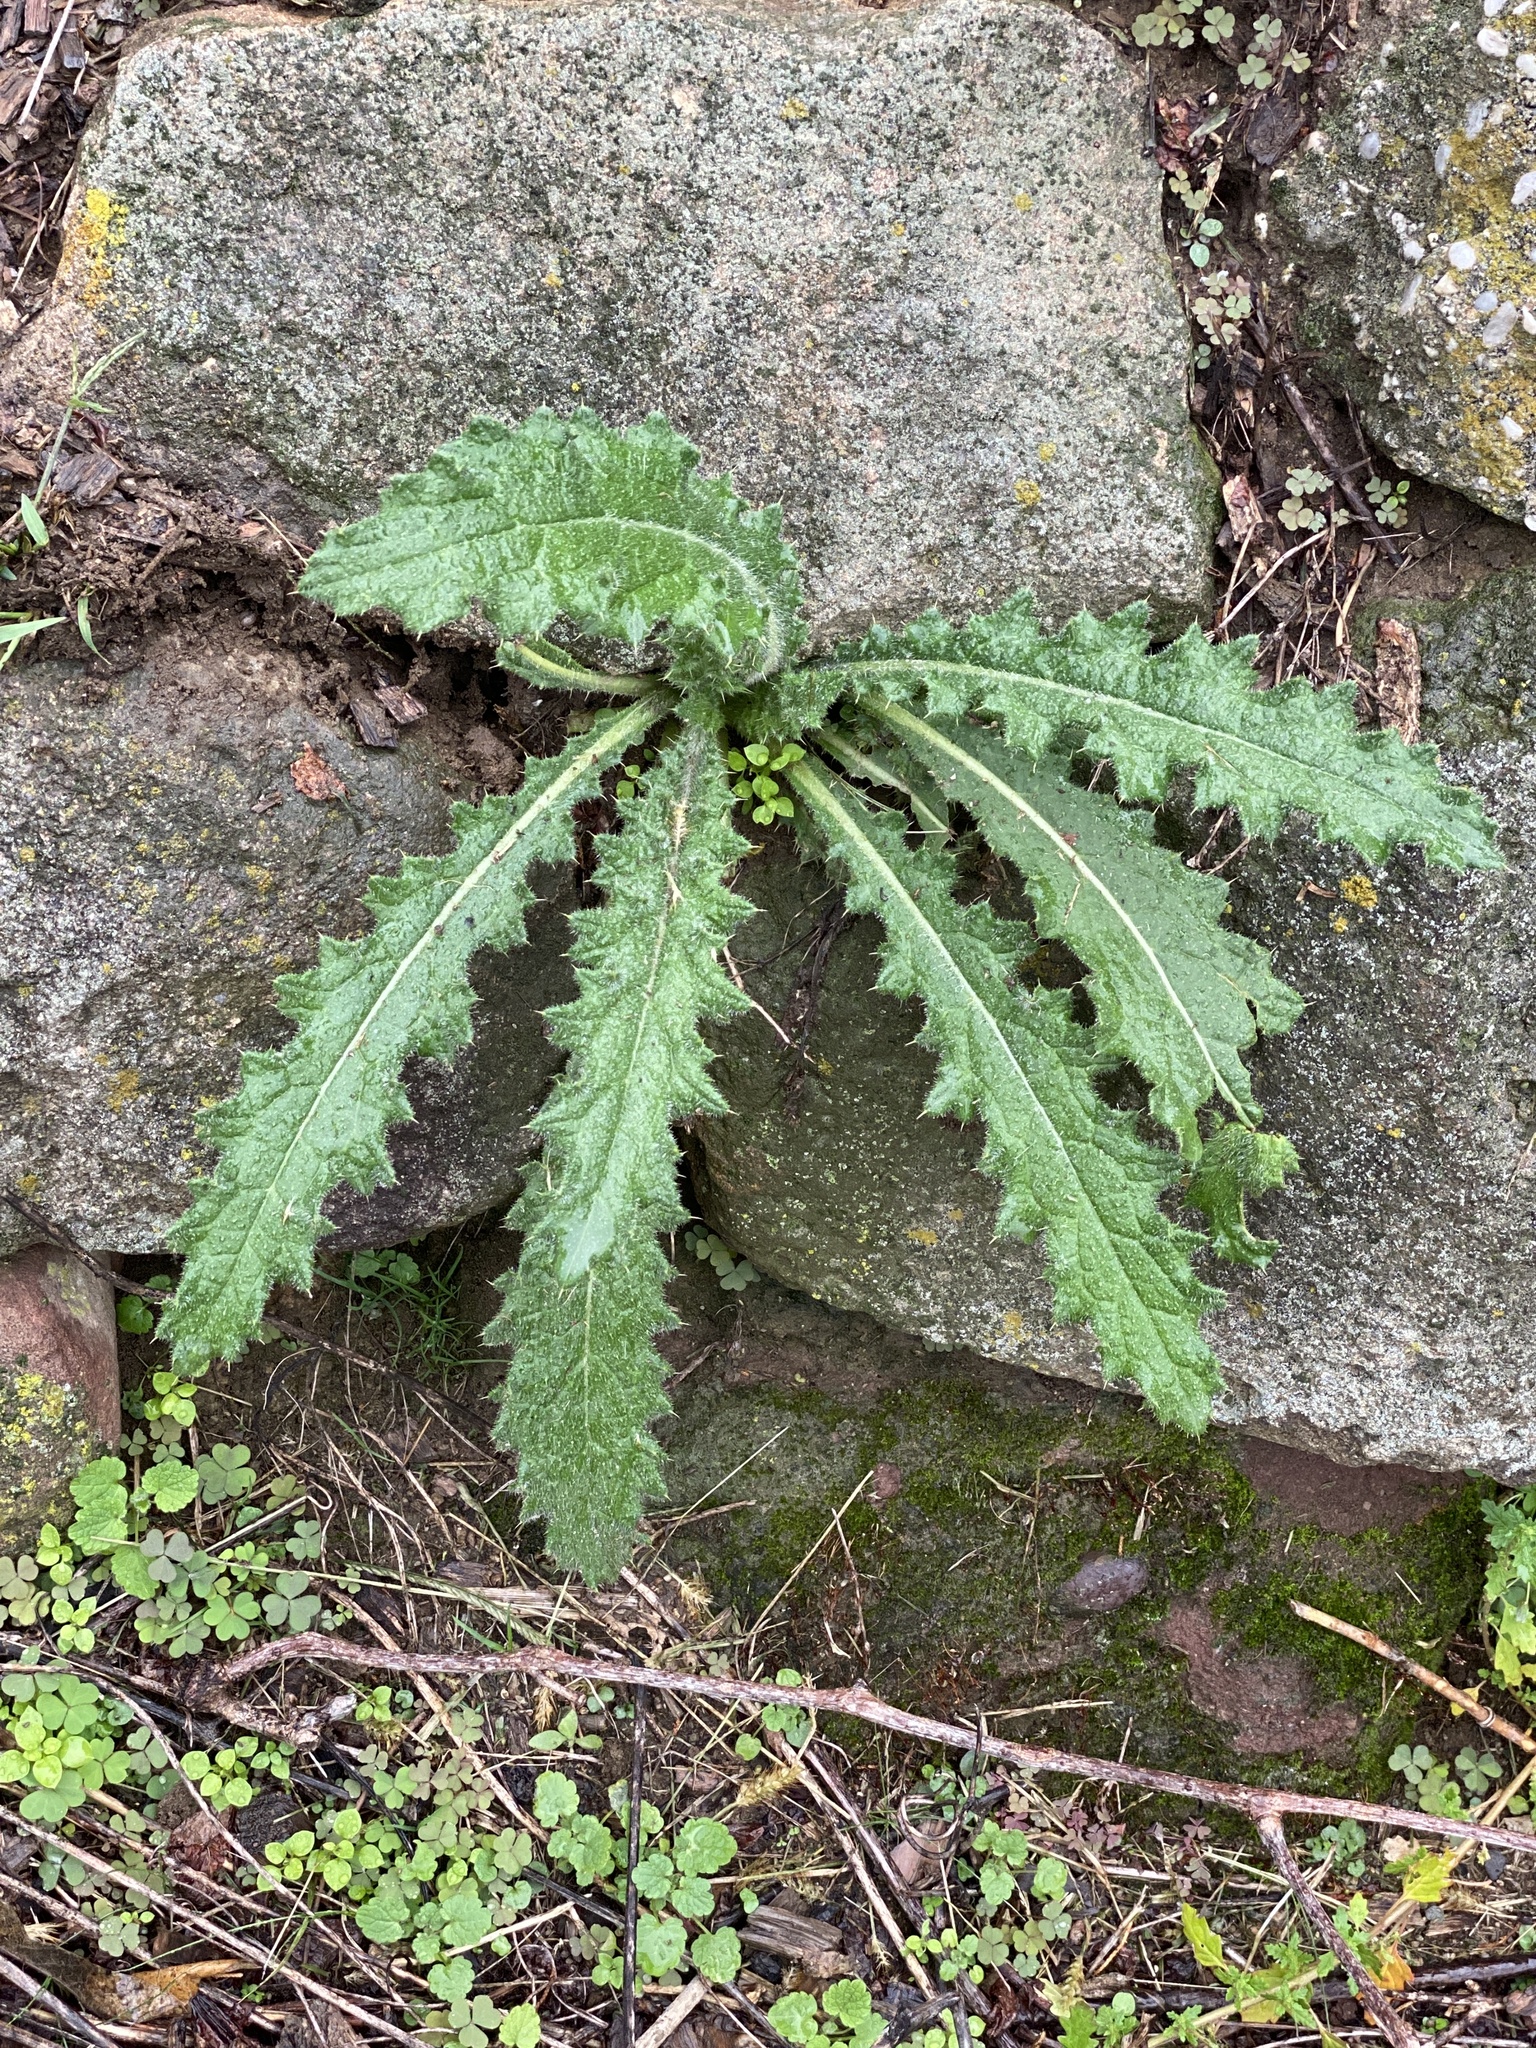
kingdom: Plantae
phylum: Tracheophyta
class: Magnoliopsida
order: Asterales
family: Asteraceae
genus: Cirsium
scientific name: Cirsium vulgare
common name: Bull thistle
